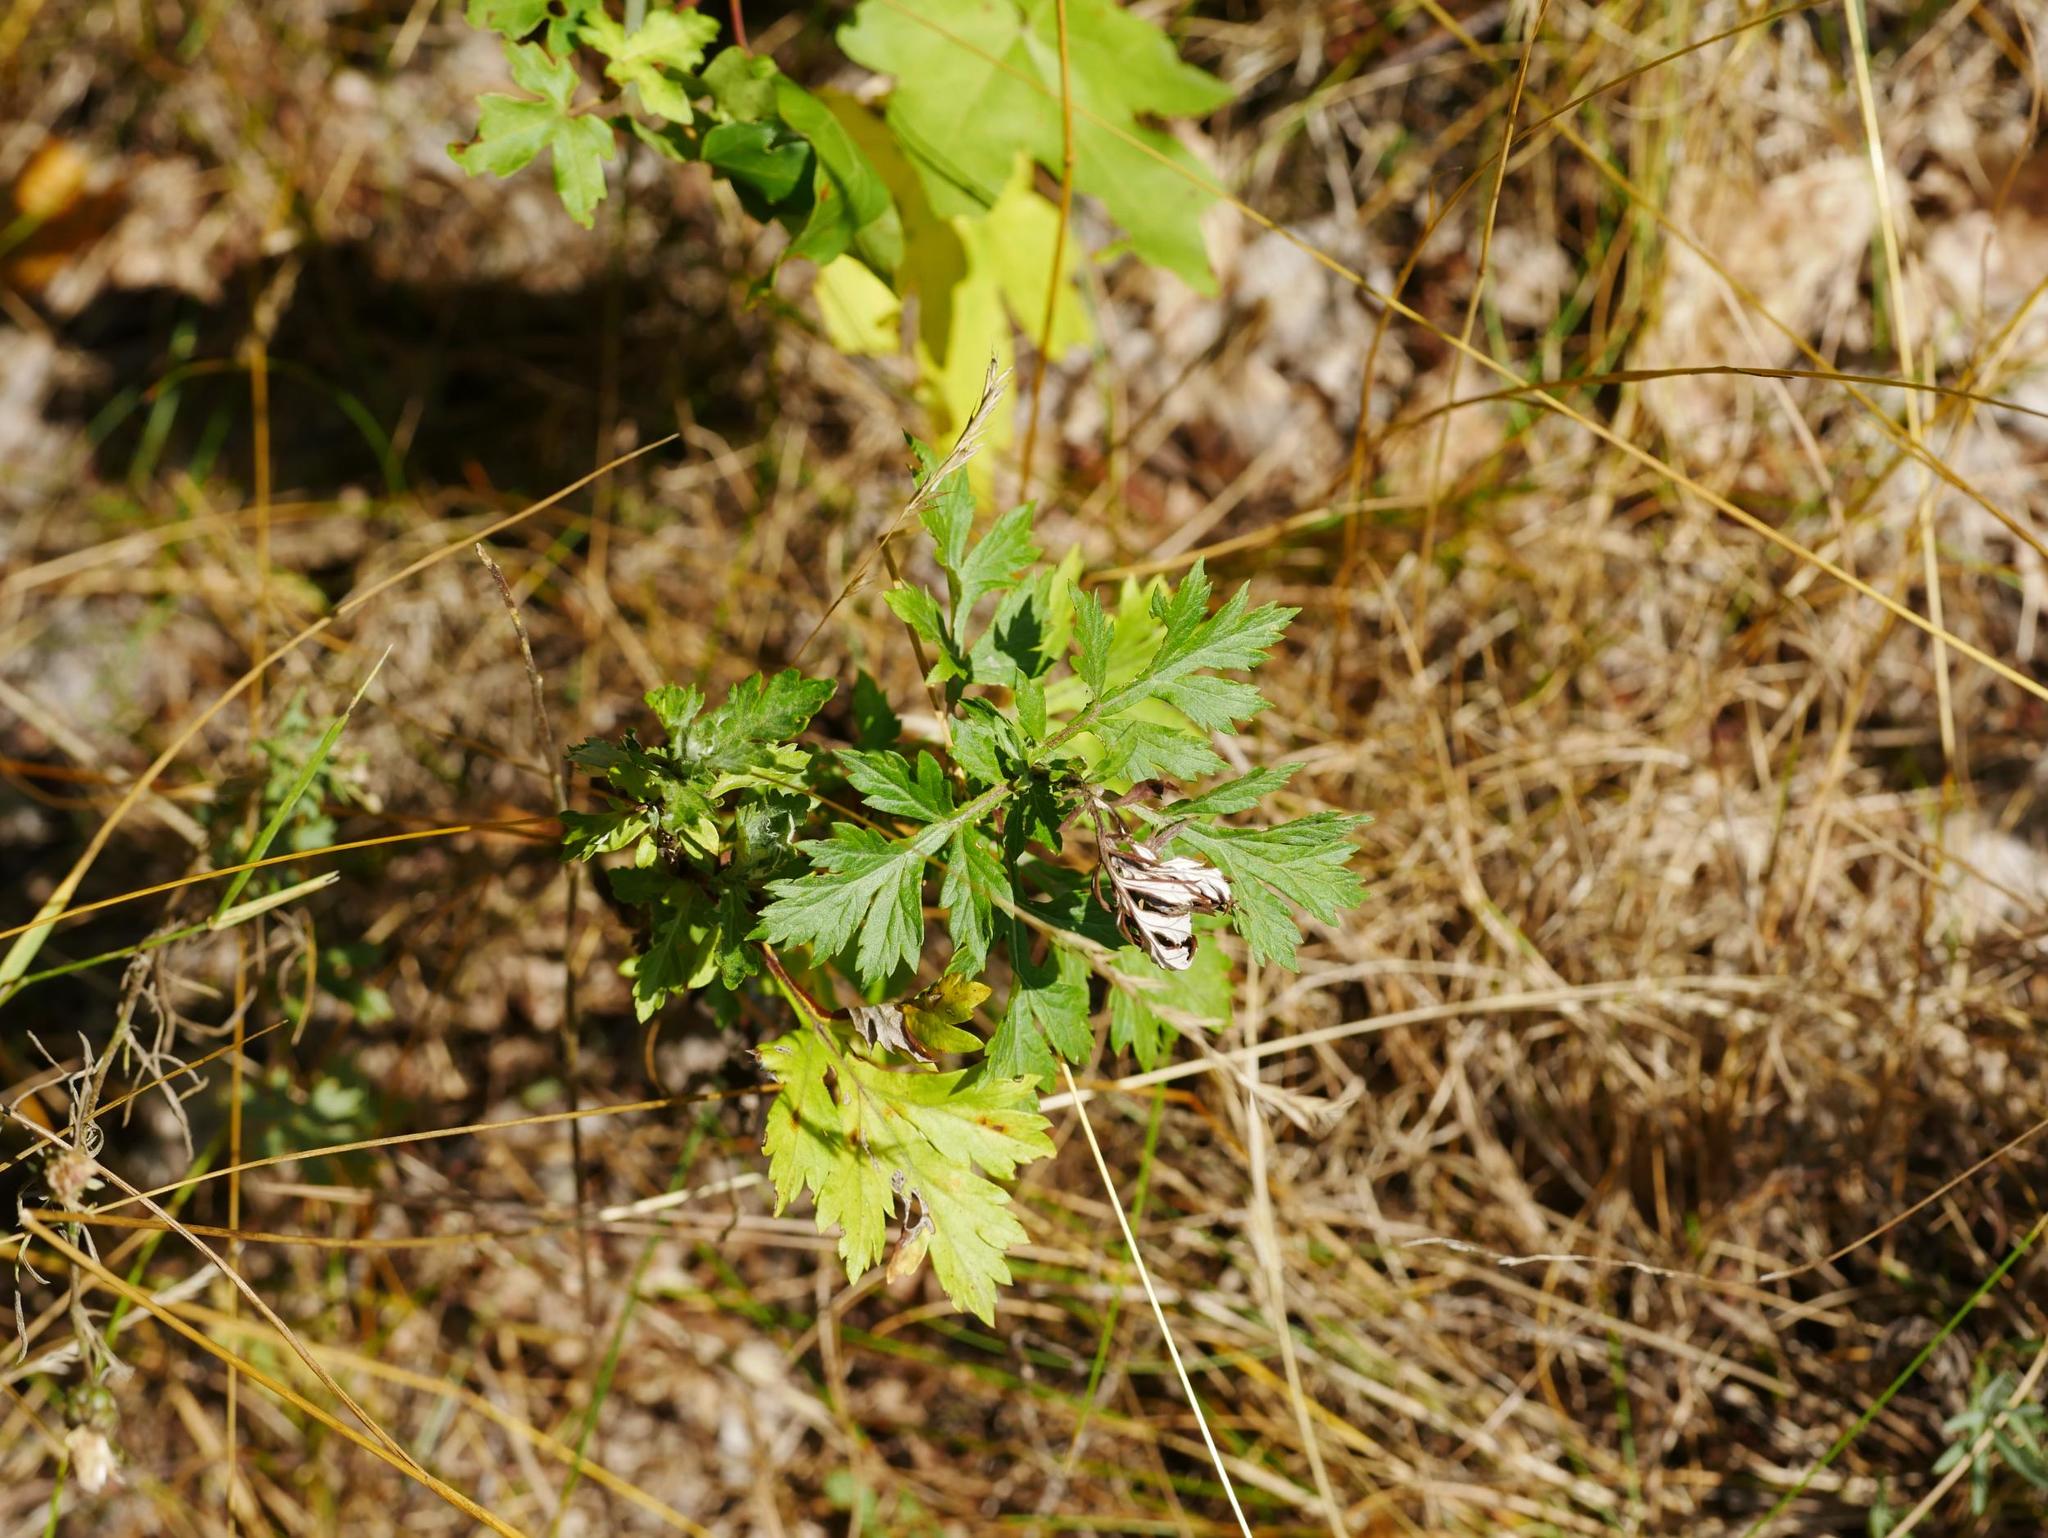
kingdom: Plantae
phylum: Tracheophyta
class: Magnoliopsida
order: Asterales
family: Asteraceae
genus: Artemisia
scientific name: Artemisia vulgaris
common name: Mugwort
